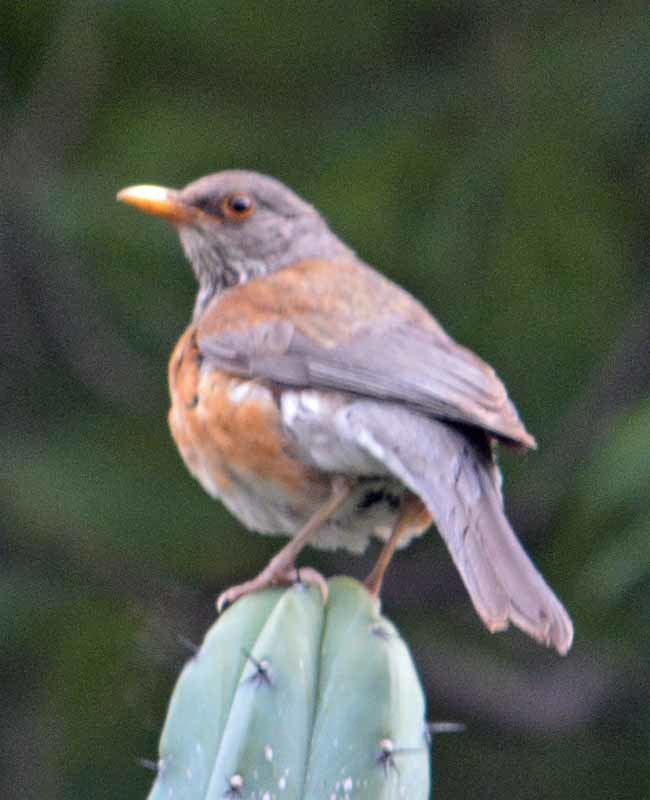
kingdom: Animalia
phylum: Chordata
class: Aves
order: Passeriformes
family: Turdidae
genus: Turdus
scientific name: Turdus rufopalliatus
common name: Rufous-backed robin
